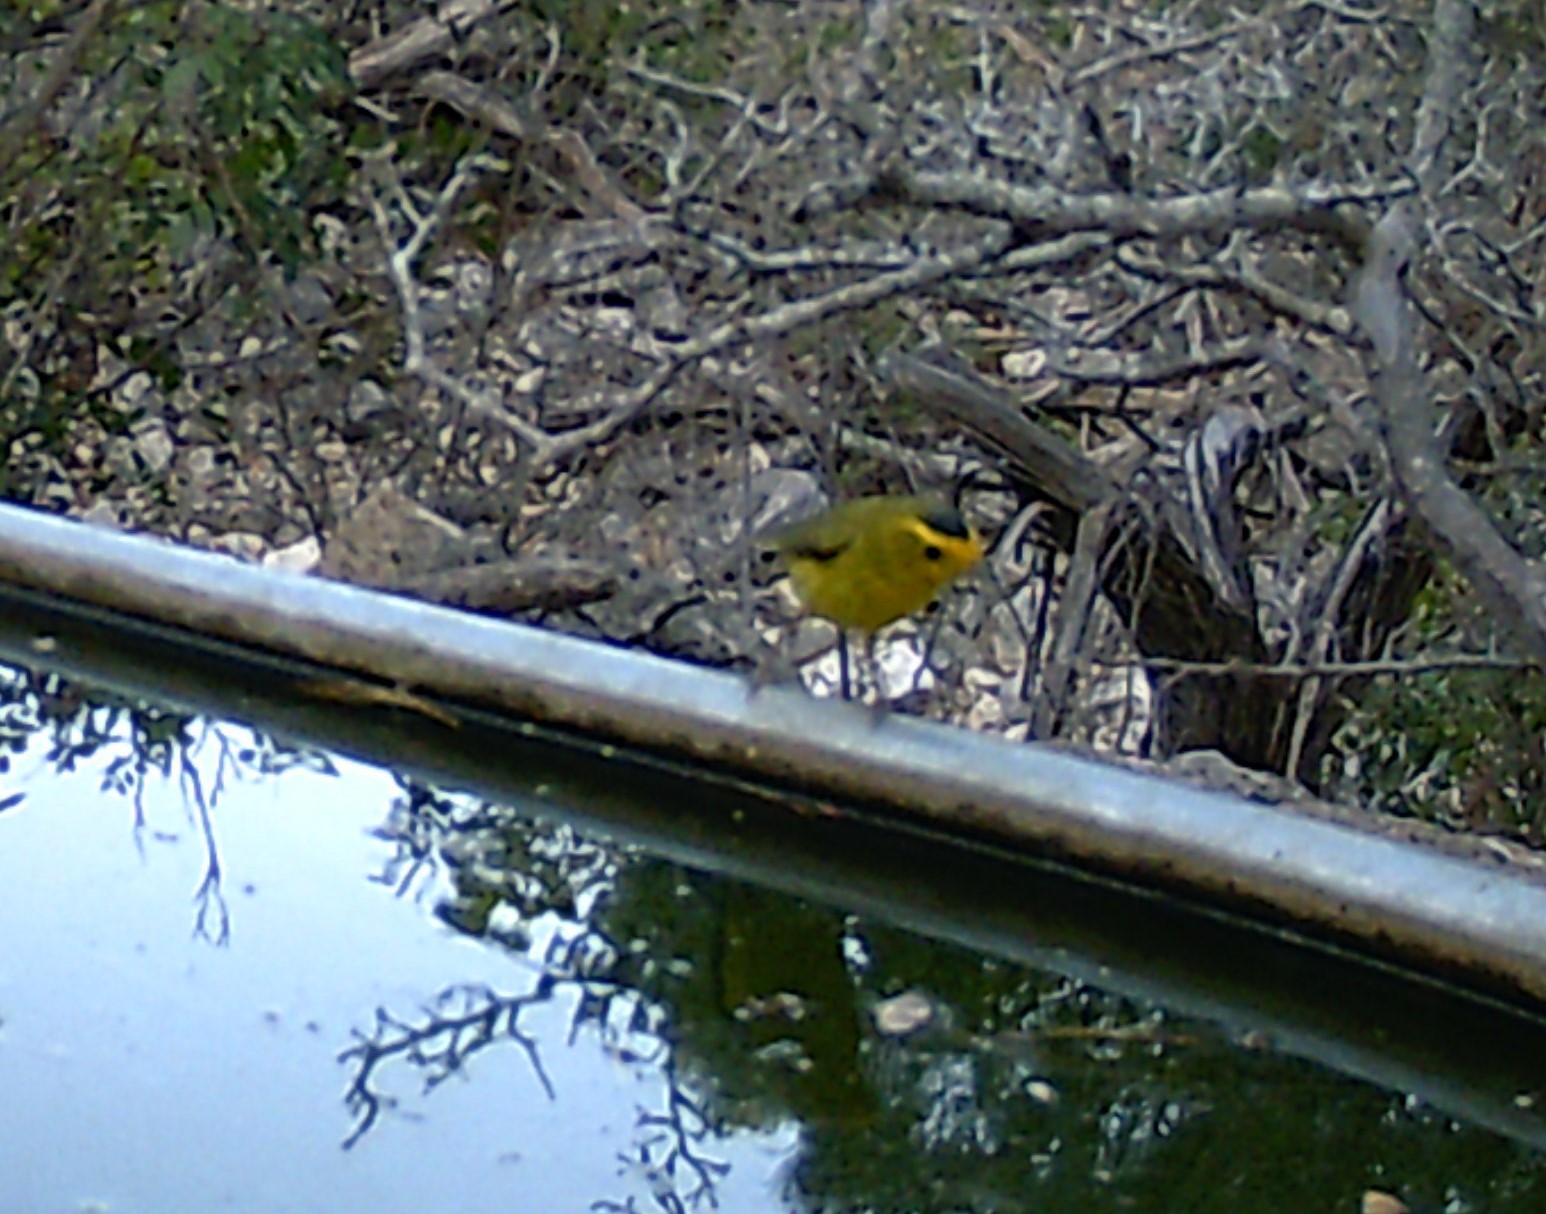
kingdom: Animalia
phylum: Chordata
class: Aves
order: Passeriformes
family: Parulidae
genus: Cardellina
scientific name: Cardellina pusilla
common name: Wilson's warbler
